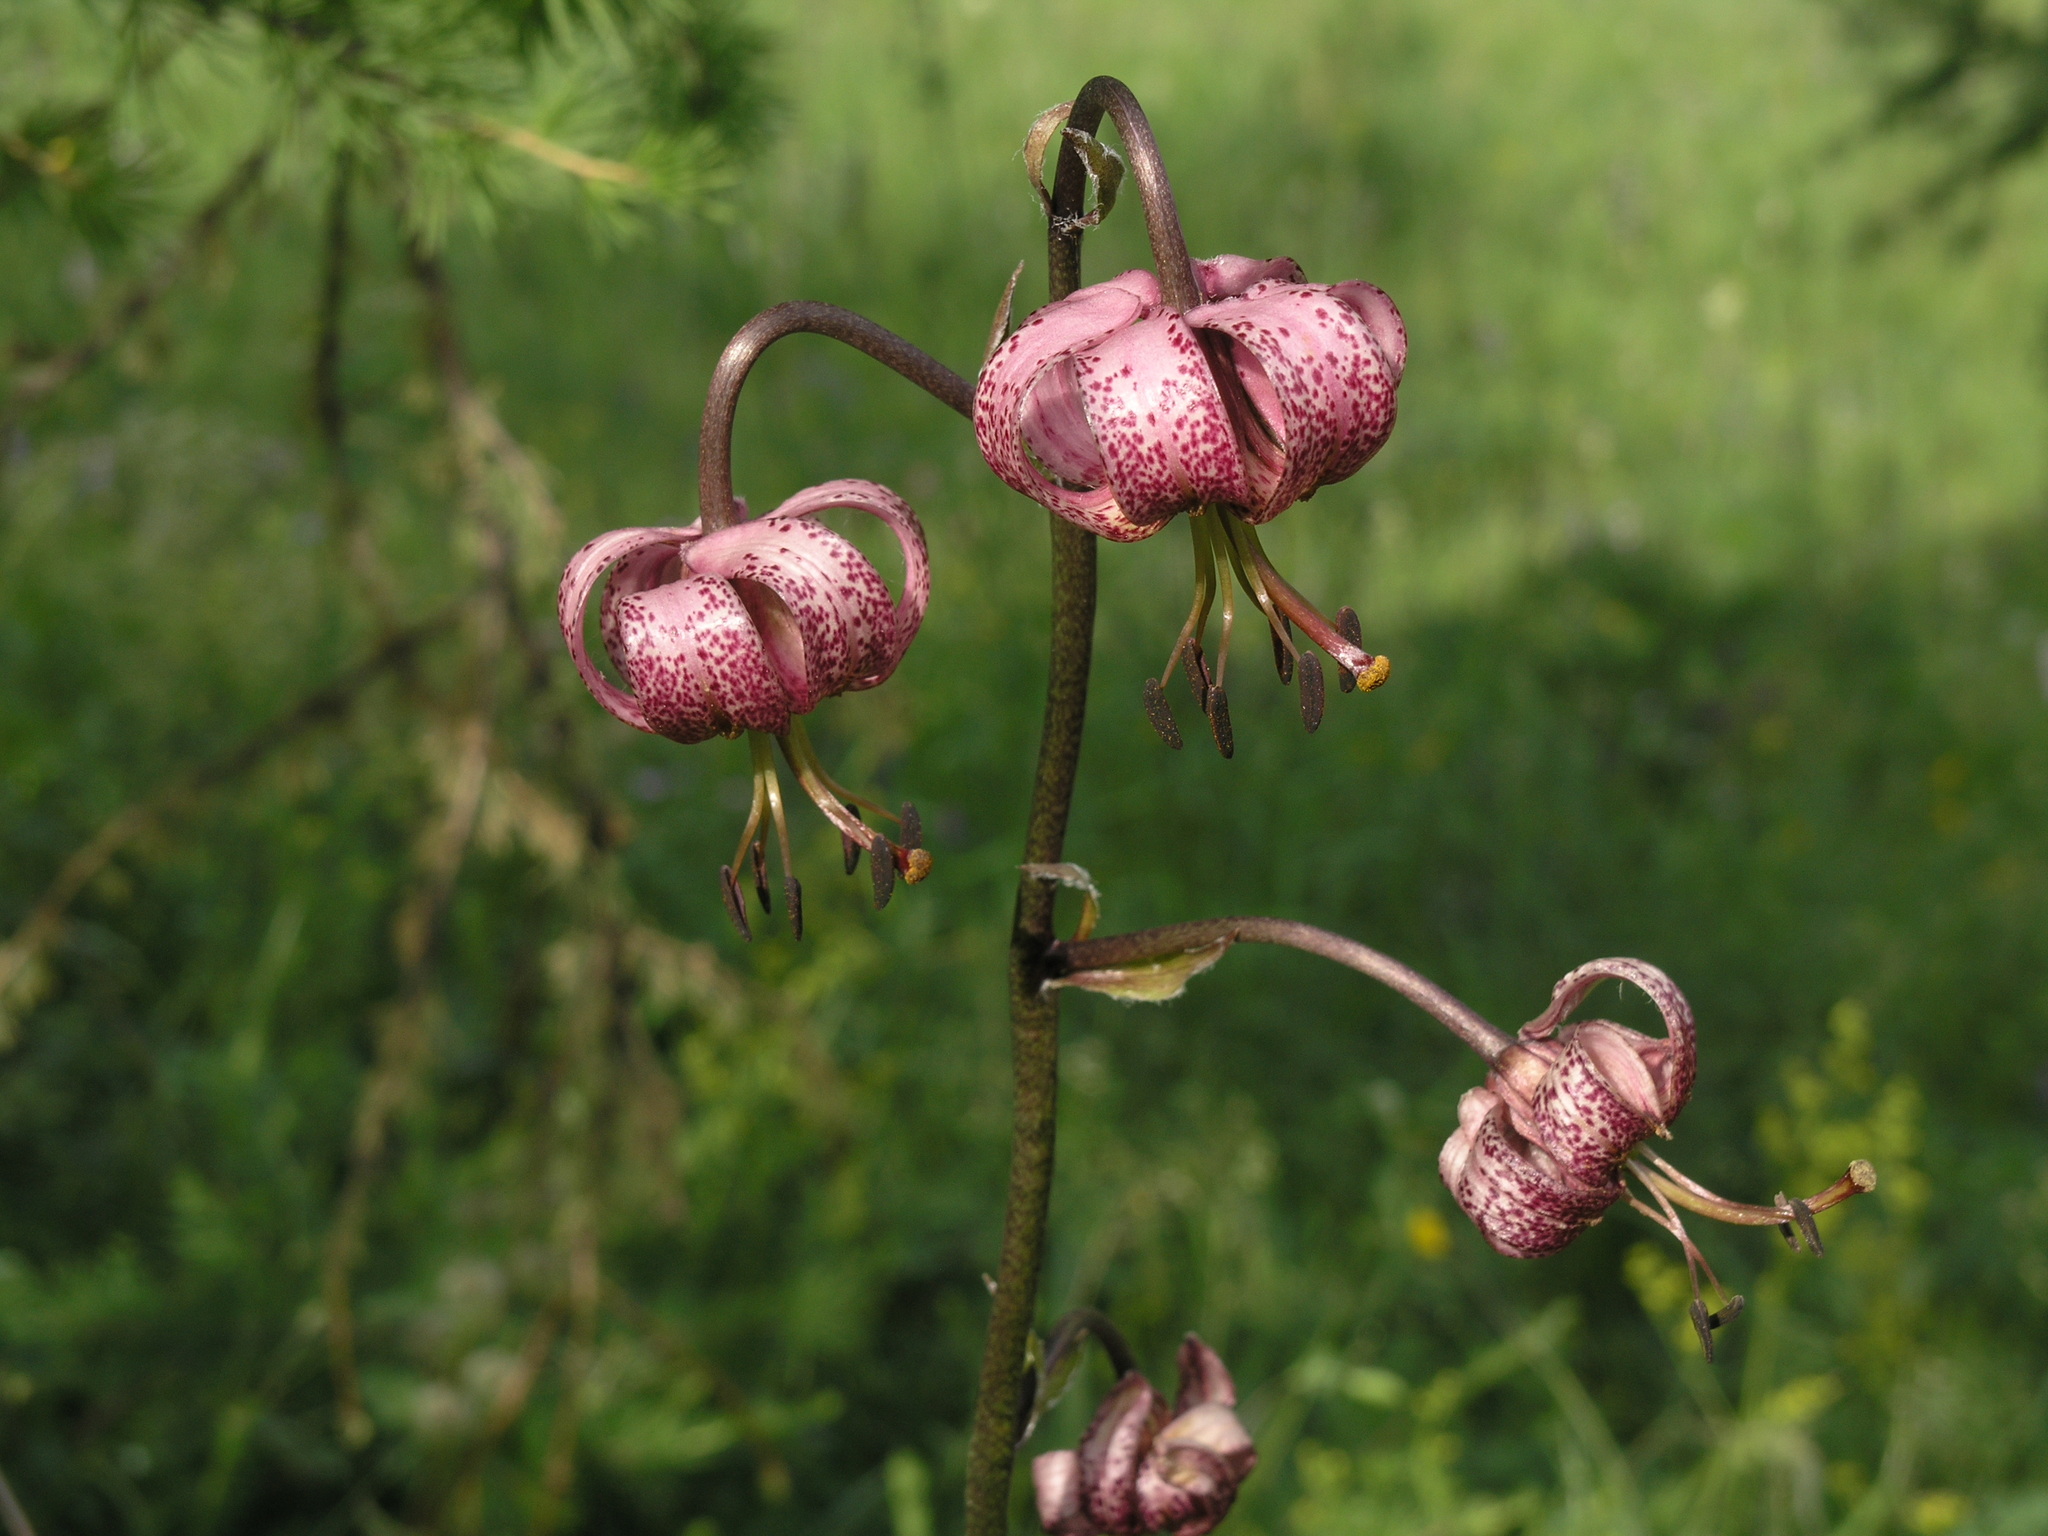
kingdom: Plantae
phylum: Tracheophyta
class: Liliopsida
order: Liliales
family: Liliaceae
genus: Lilium
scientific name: Lilium martagon
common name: Martagon lily
